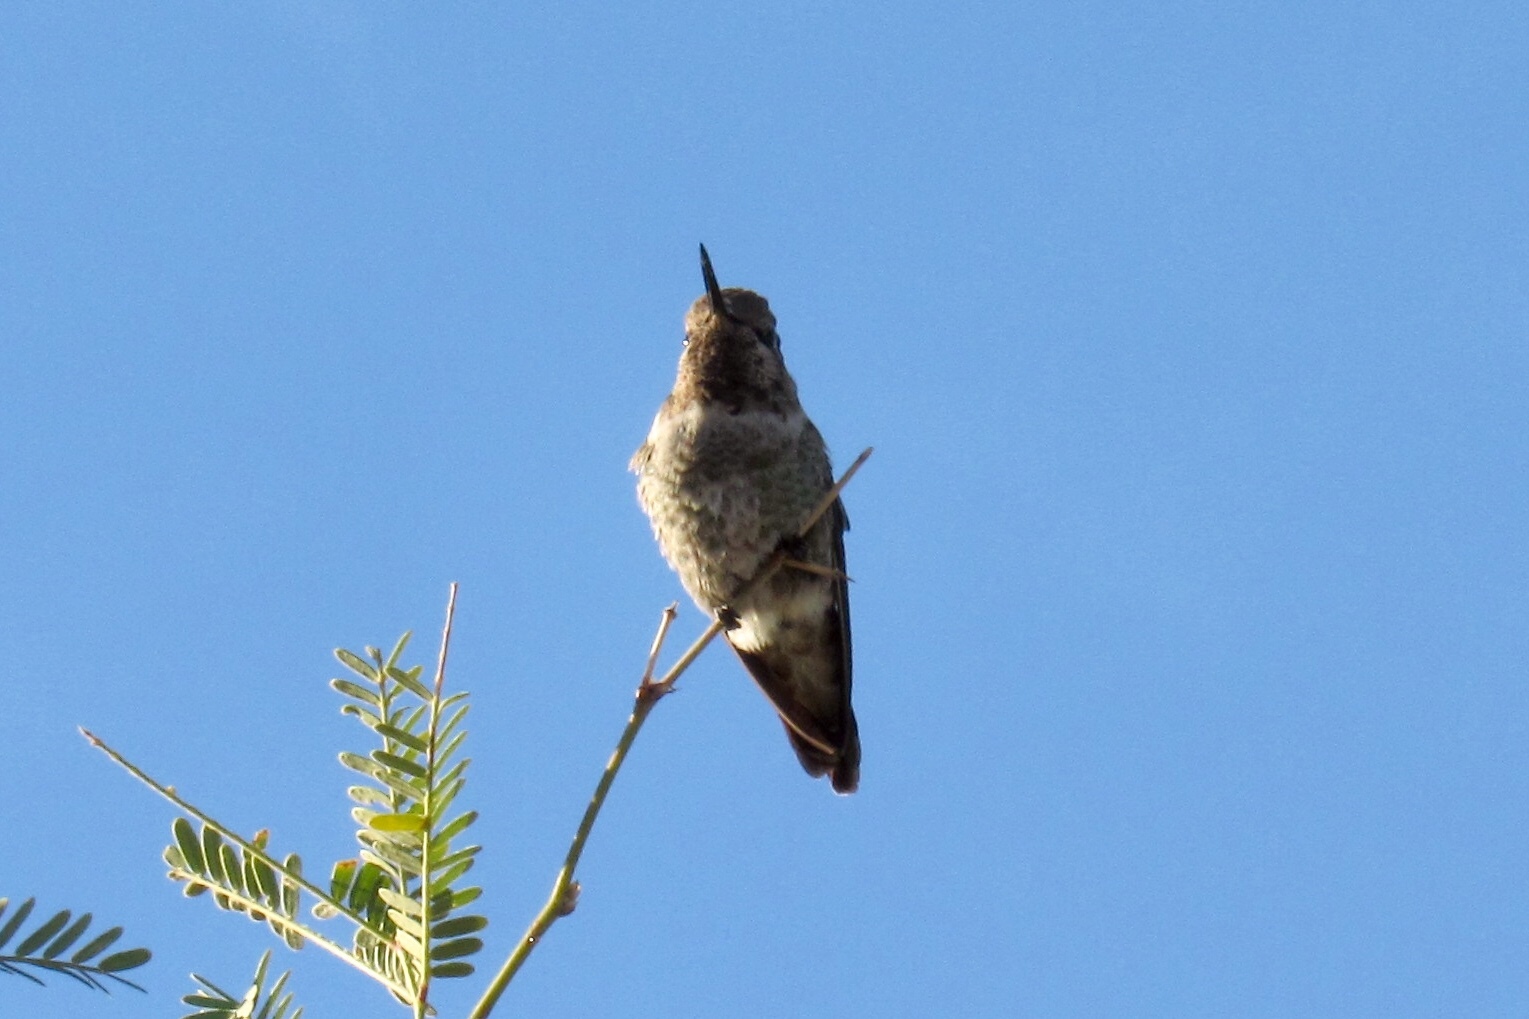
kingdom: Animalia
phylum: Chordata
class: Aves
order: Apodiformes
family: Trochilidae
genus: Calypte
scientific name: Calypte anna
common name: Anna's hummingbird
